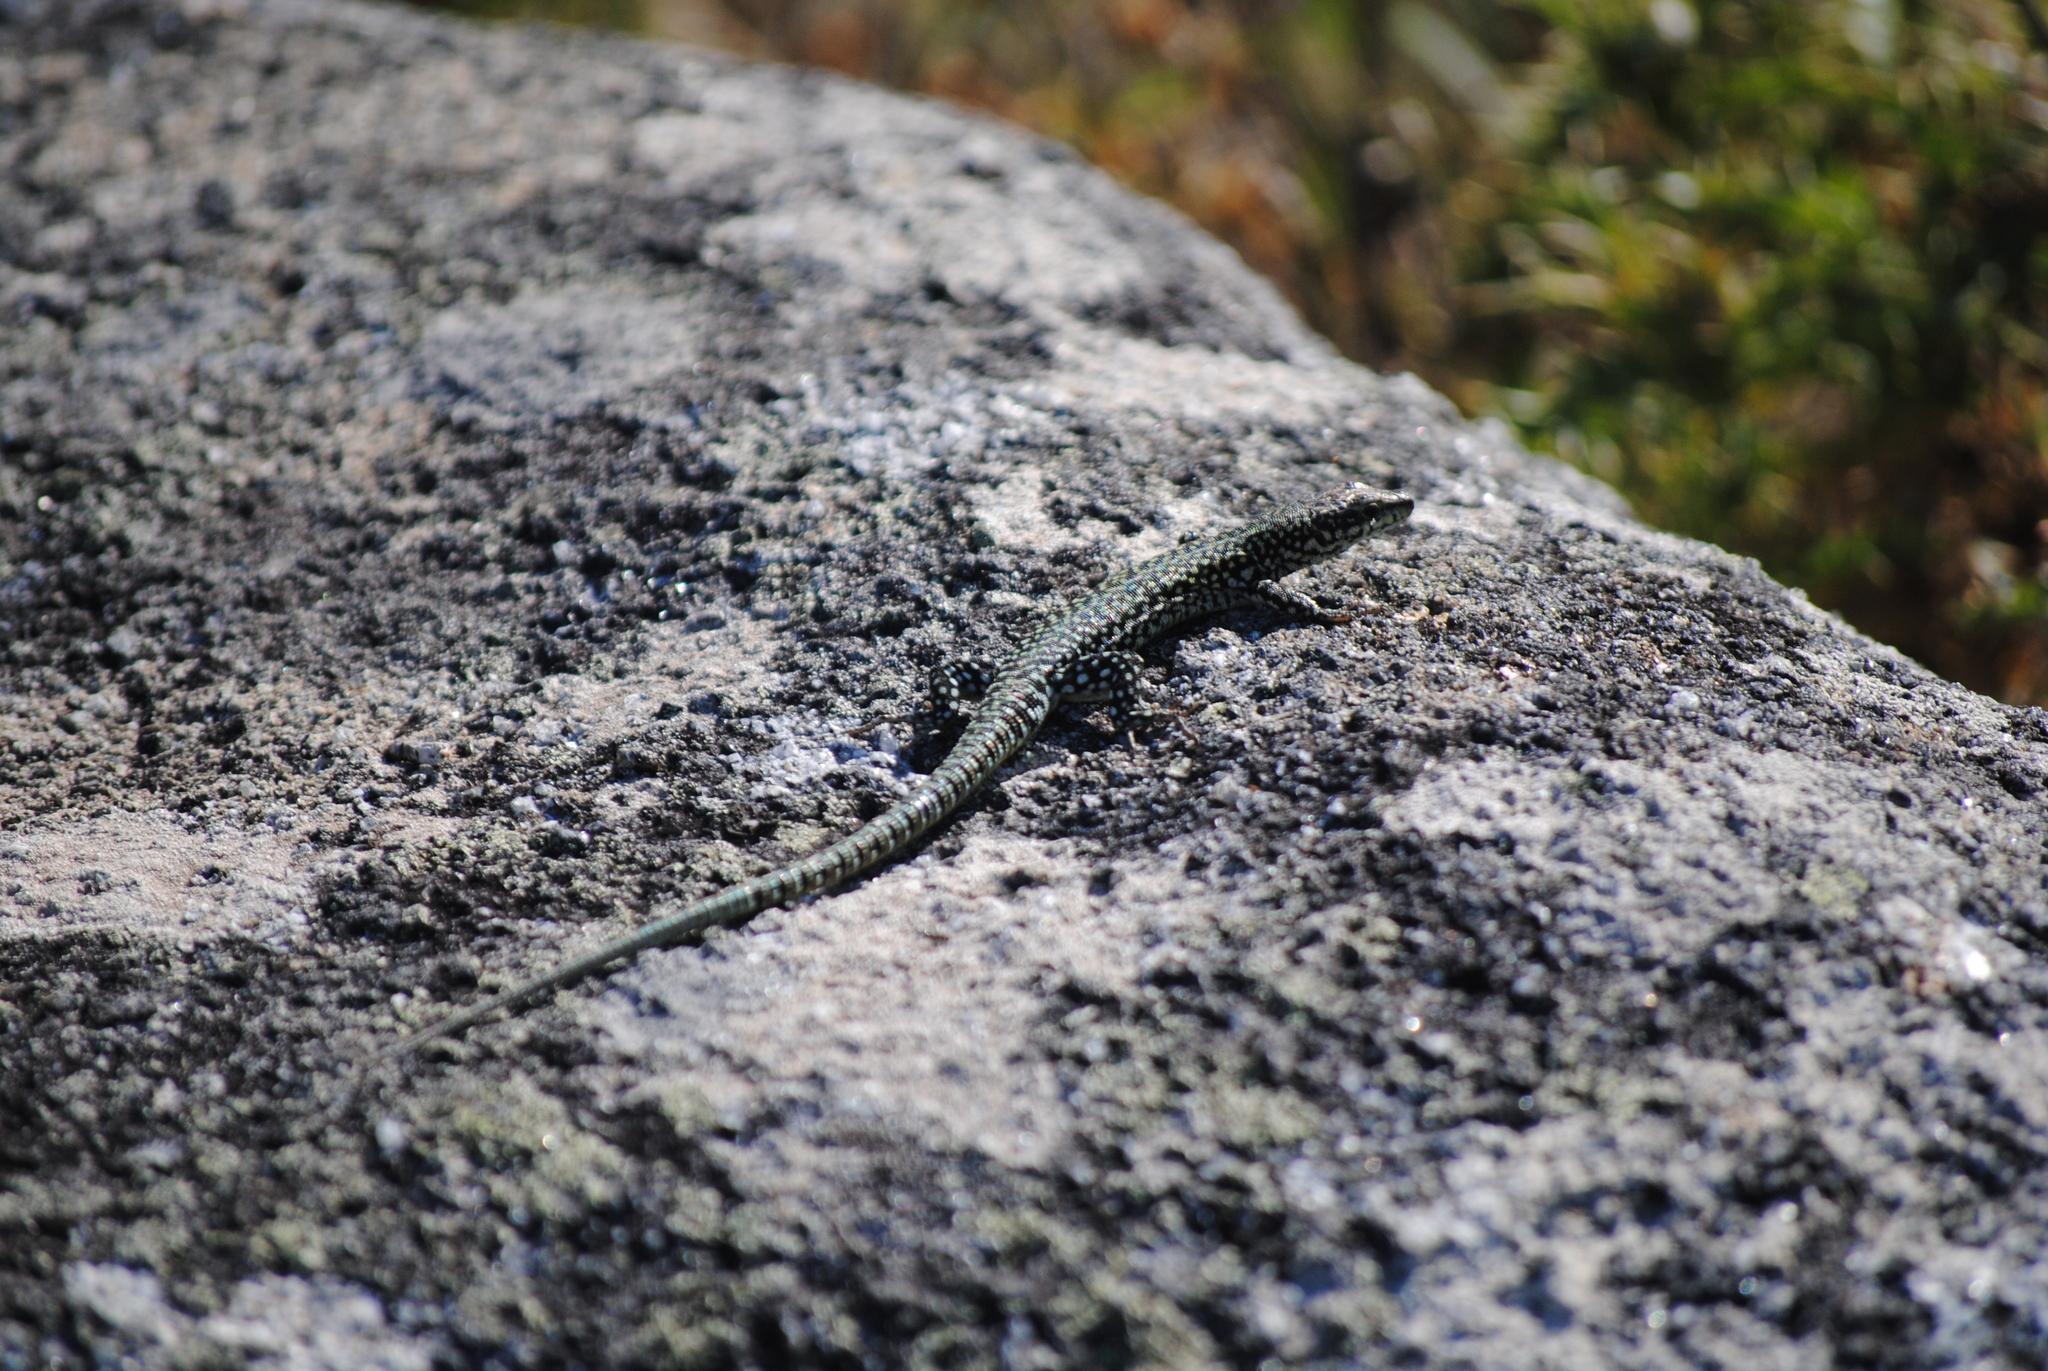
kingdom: Animalia
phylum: Chordata
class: Squamata
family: Lacertidae
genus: Podarcis
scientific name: Podarcis
